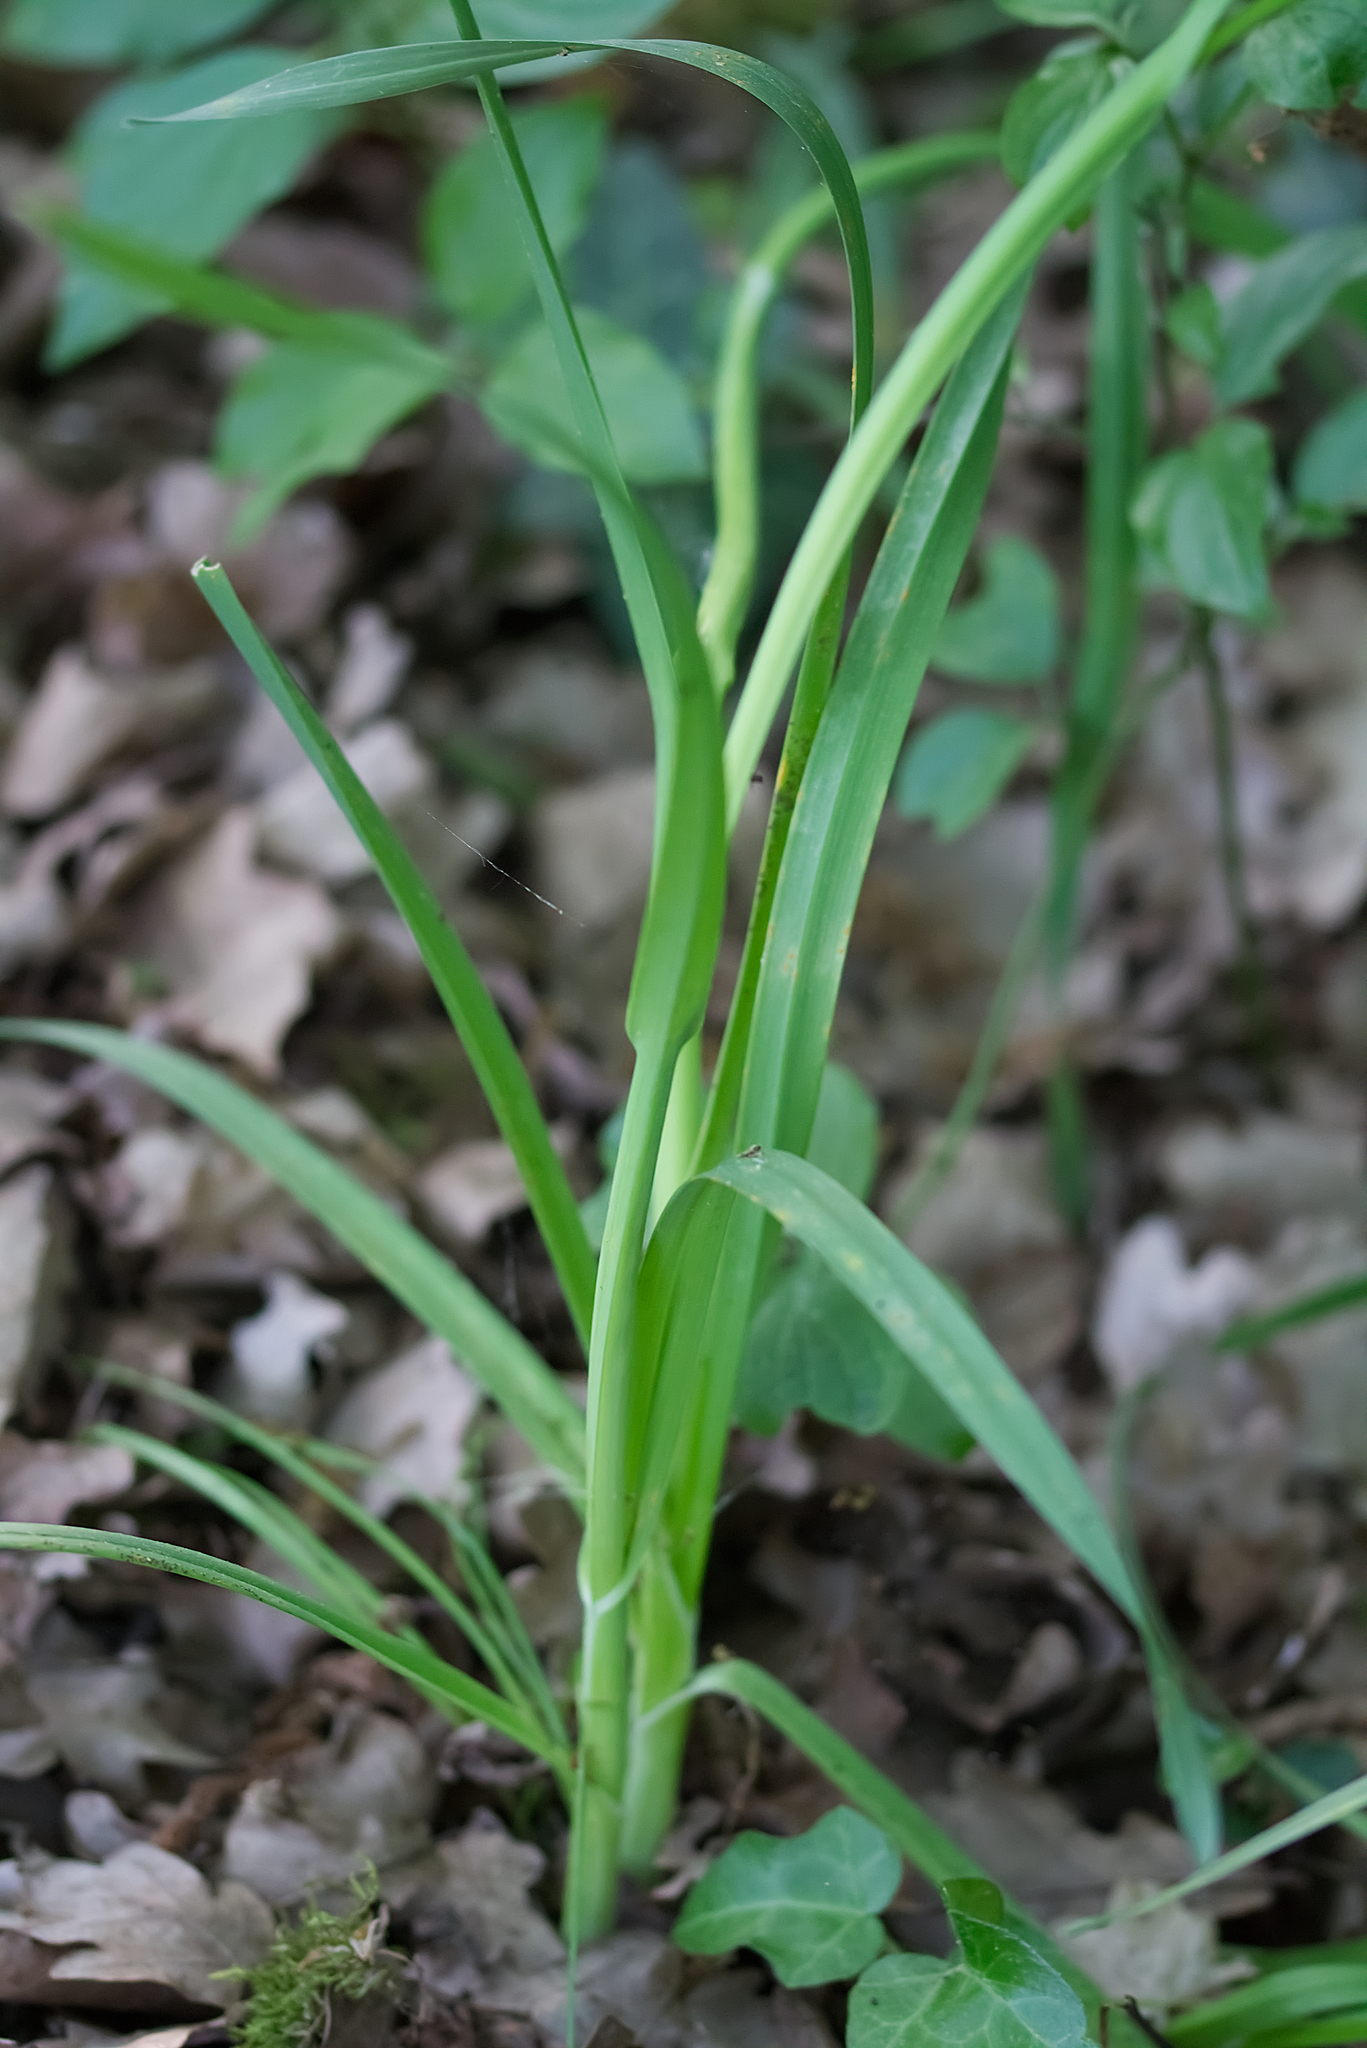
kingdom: Plantae
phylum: Tracheophyta
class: Liliopsida
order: Asparagales
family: Amaryllidaceae
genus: Allium
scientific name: Allium scorodoprasum
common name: Sand leek
